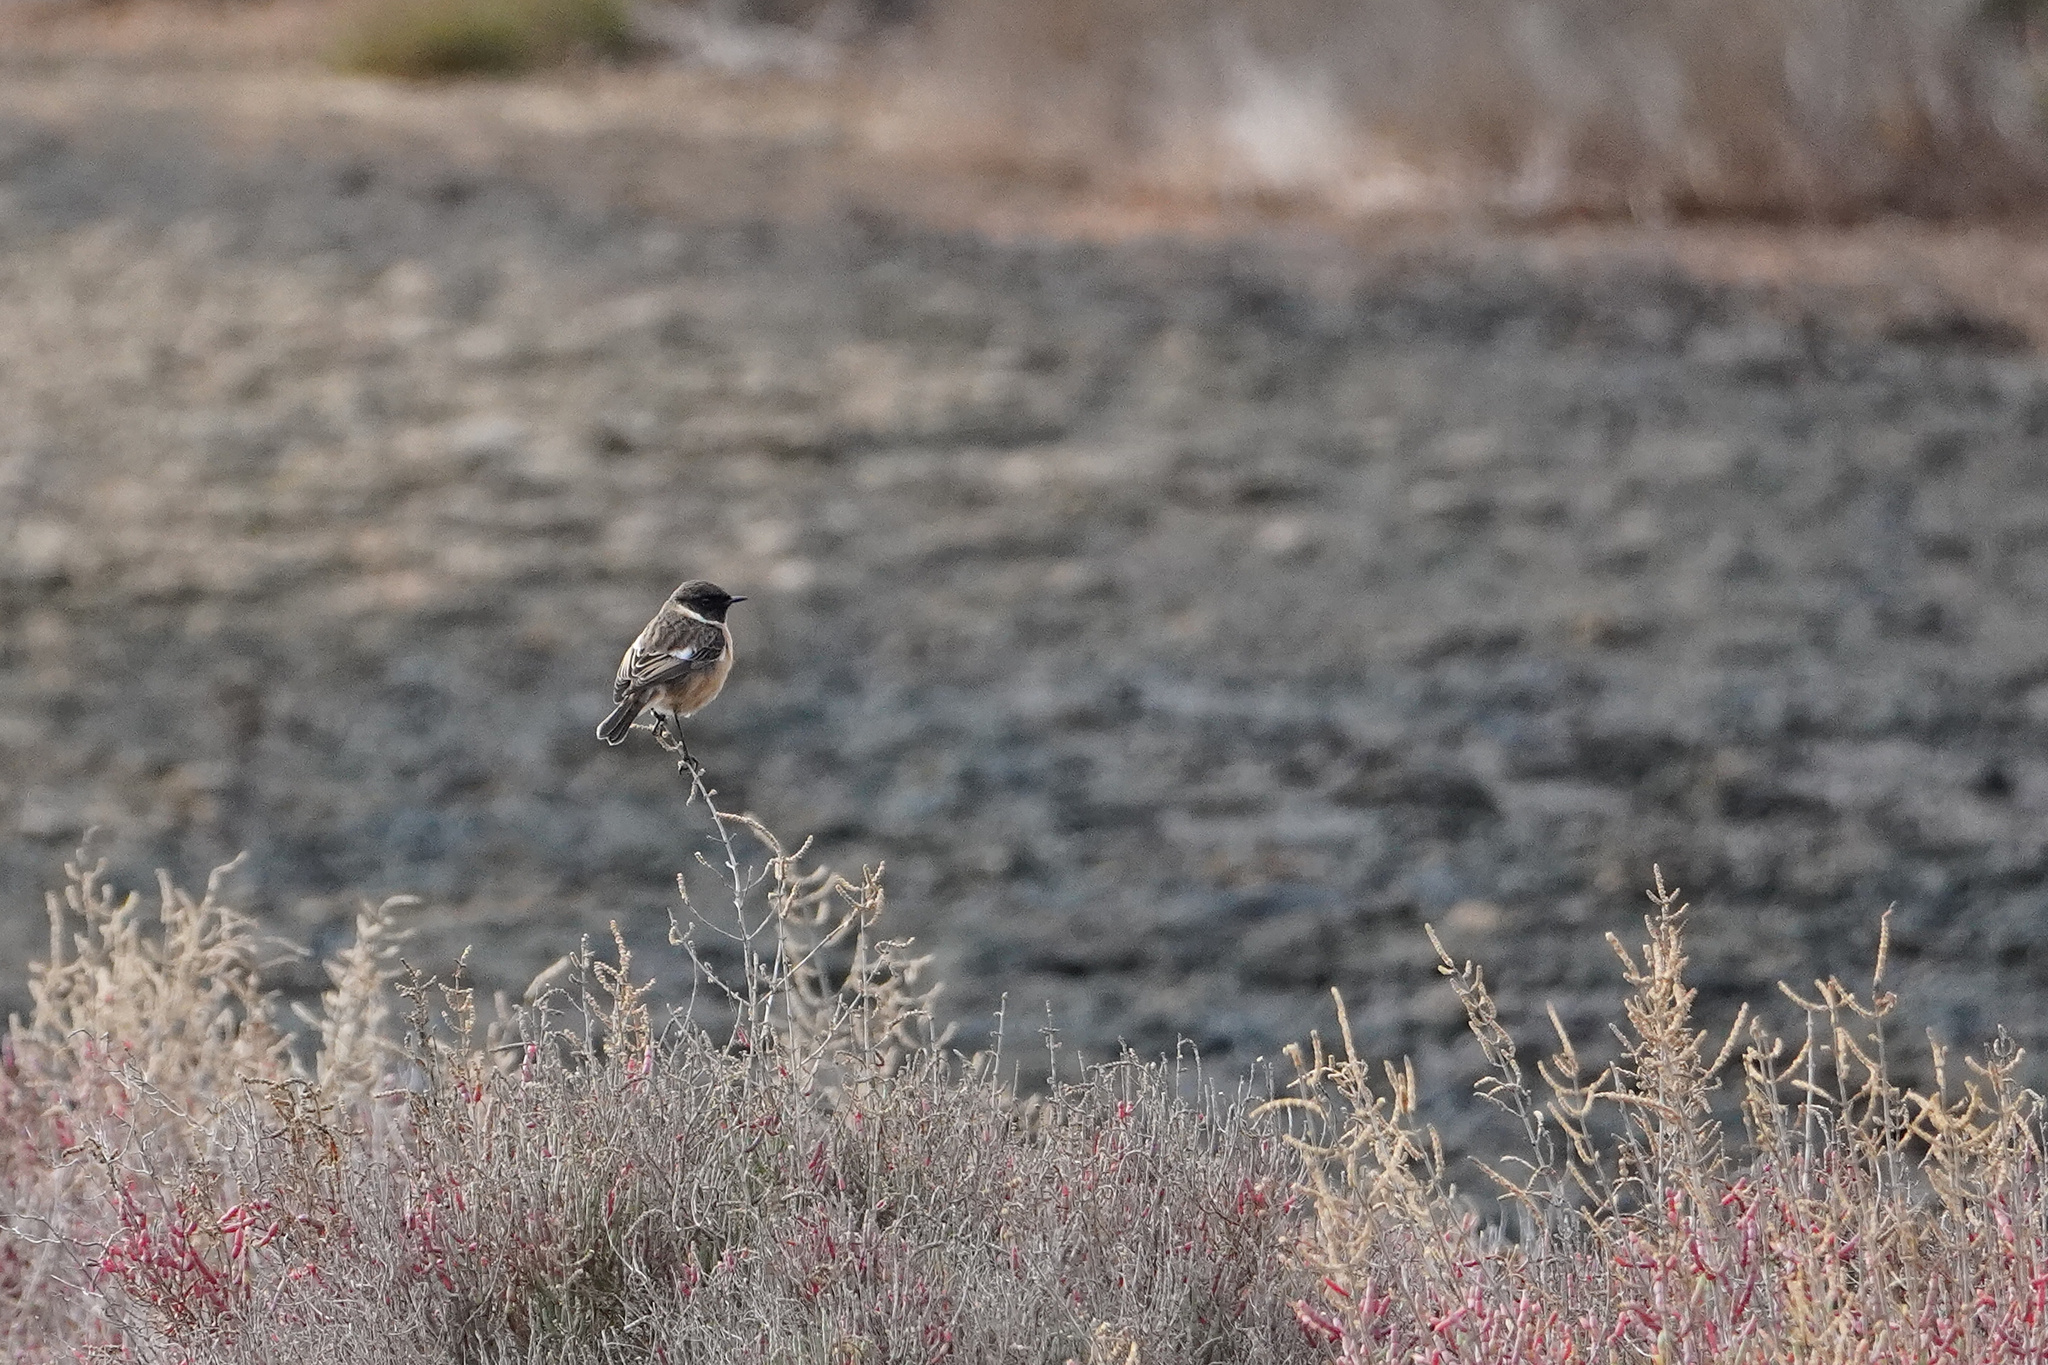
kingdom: Animalia
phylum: Chordata
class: Aves
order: Passeriformes
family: Muscicapidae
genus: Saxicola
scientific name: Saxicola rubicola
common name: European stonechat
